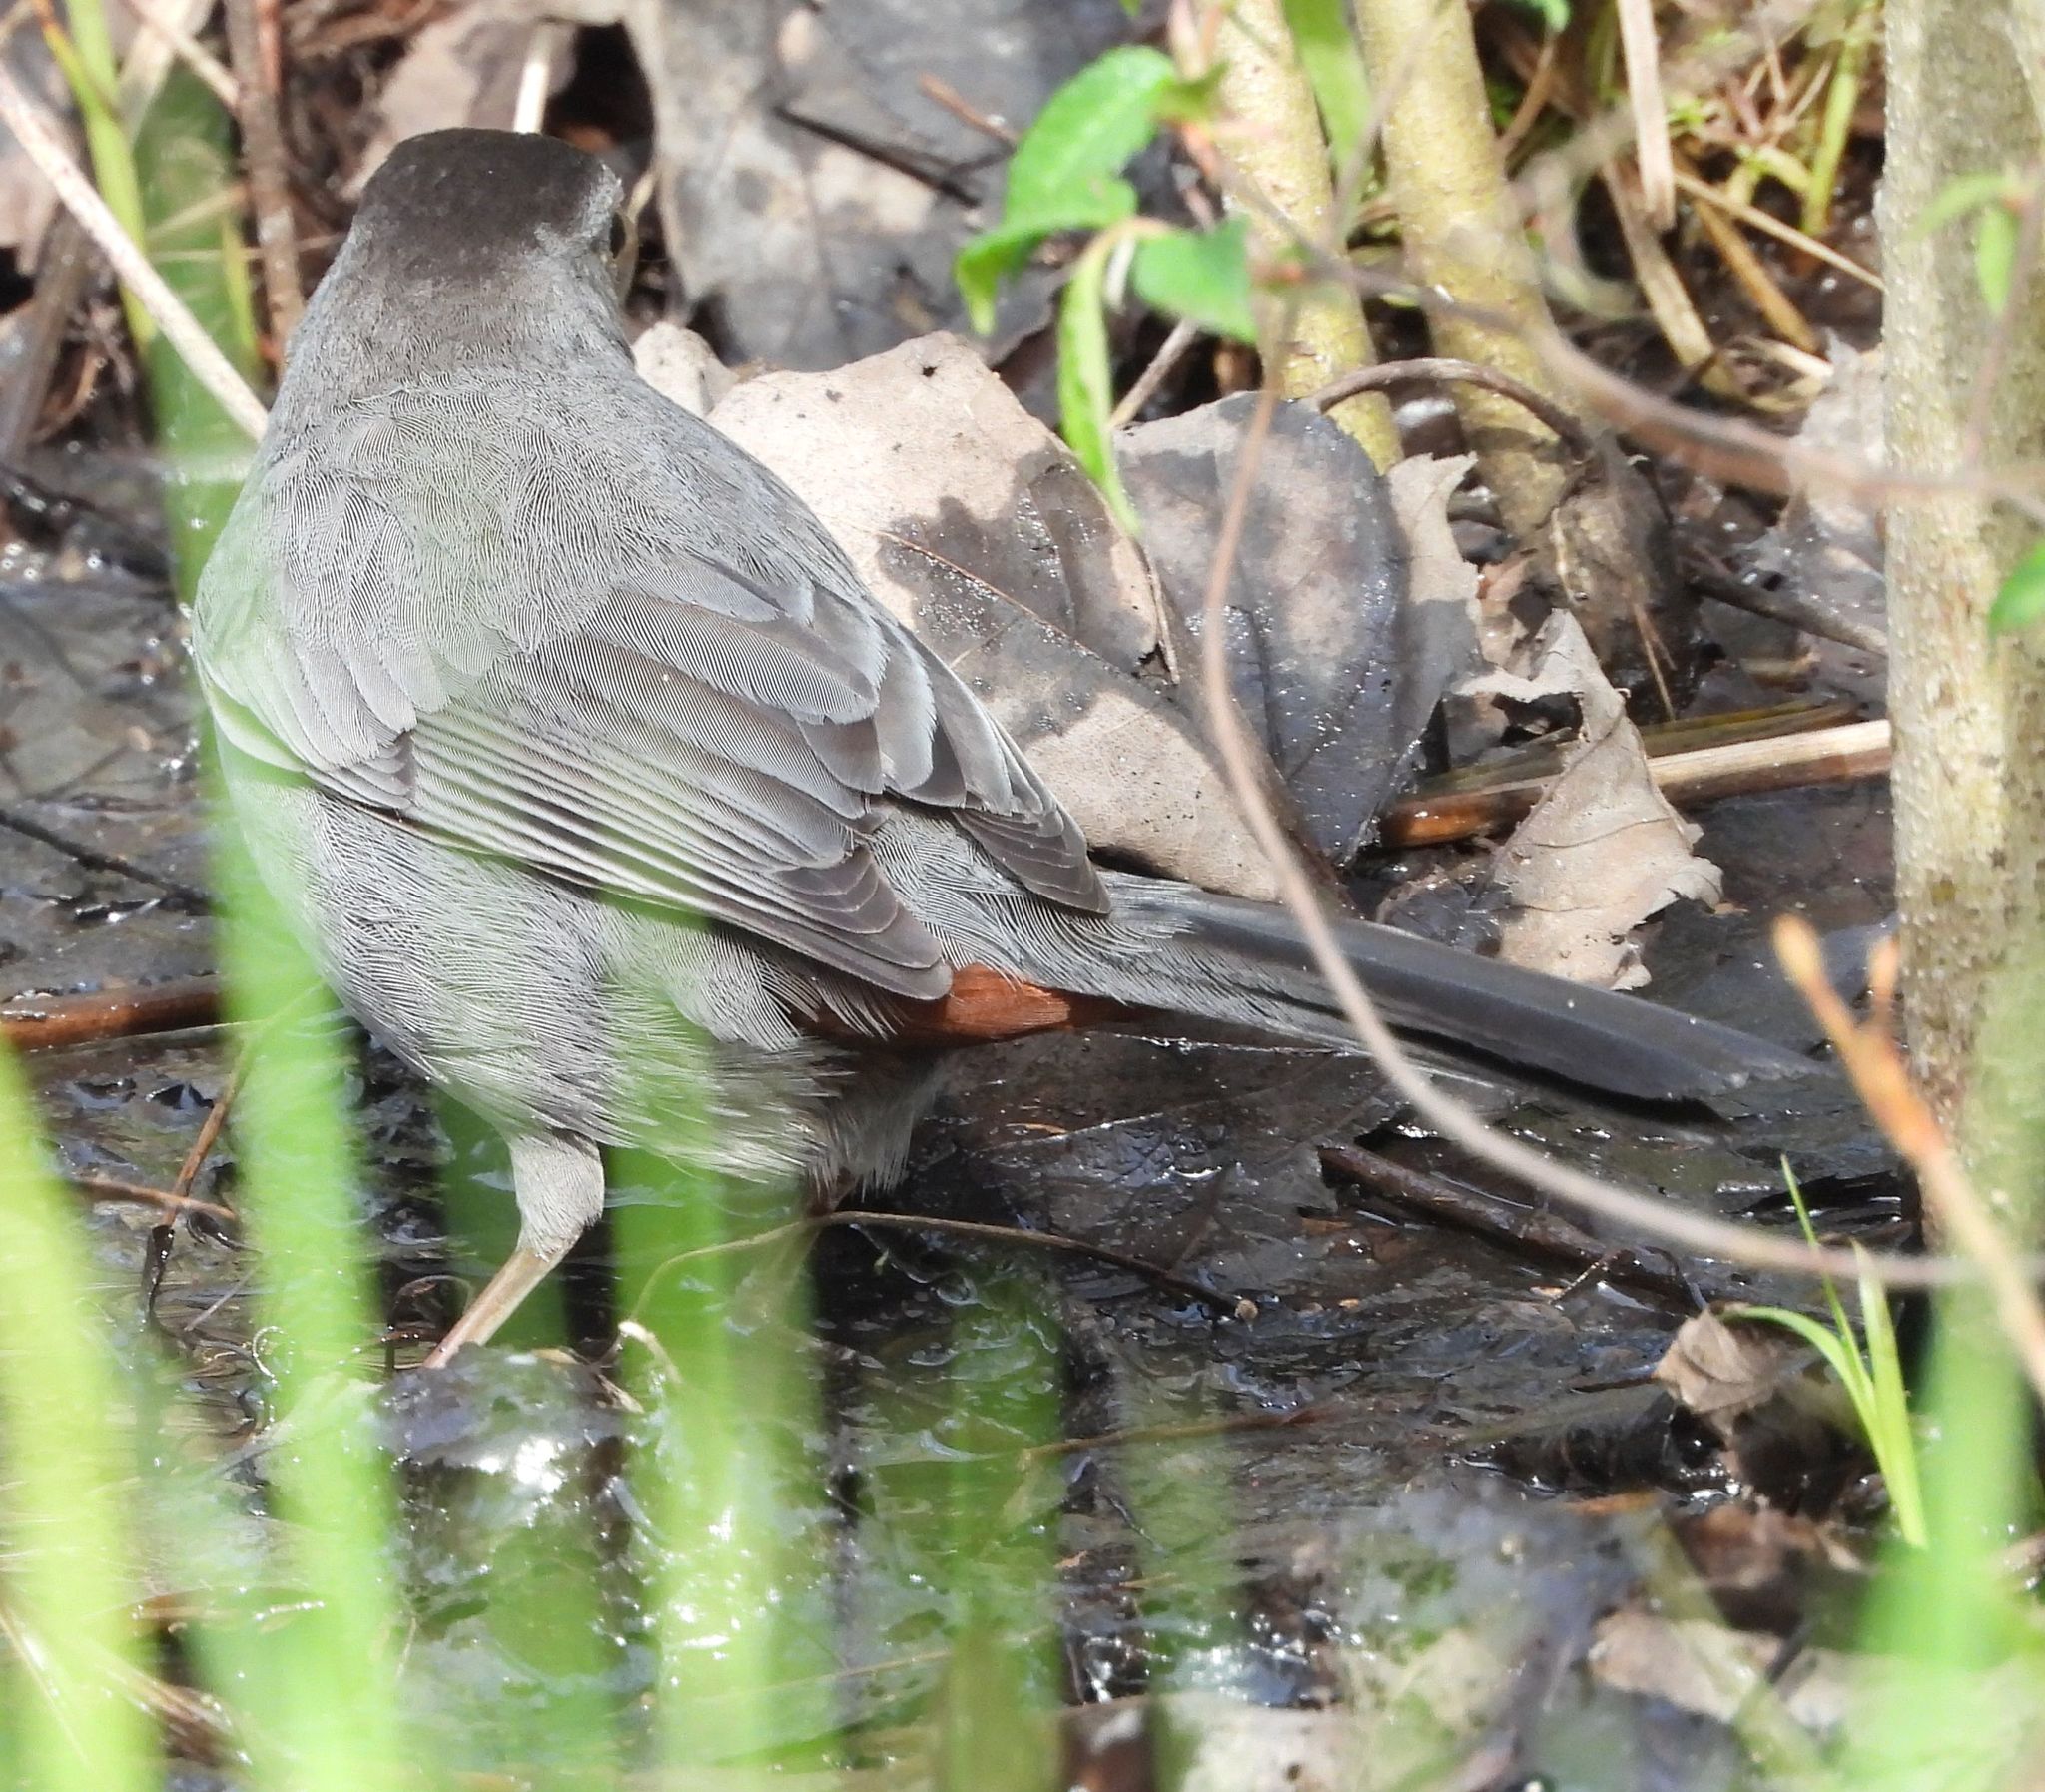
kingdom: Animalia
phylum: Chordata
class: Aves
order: Passeriformes
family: Mimidae
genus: Dumetella
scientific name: Dumetella carolinensis
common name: Gray catbird
